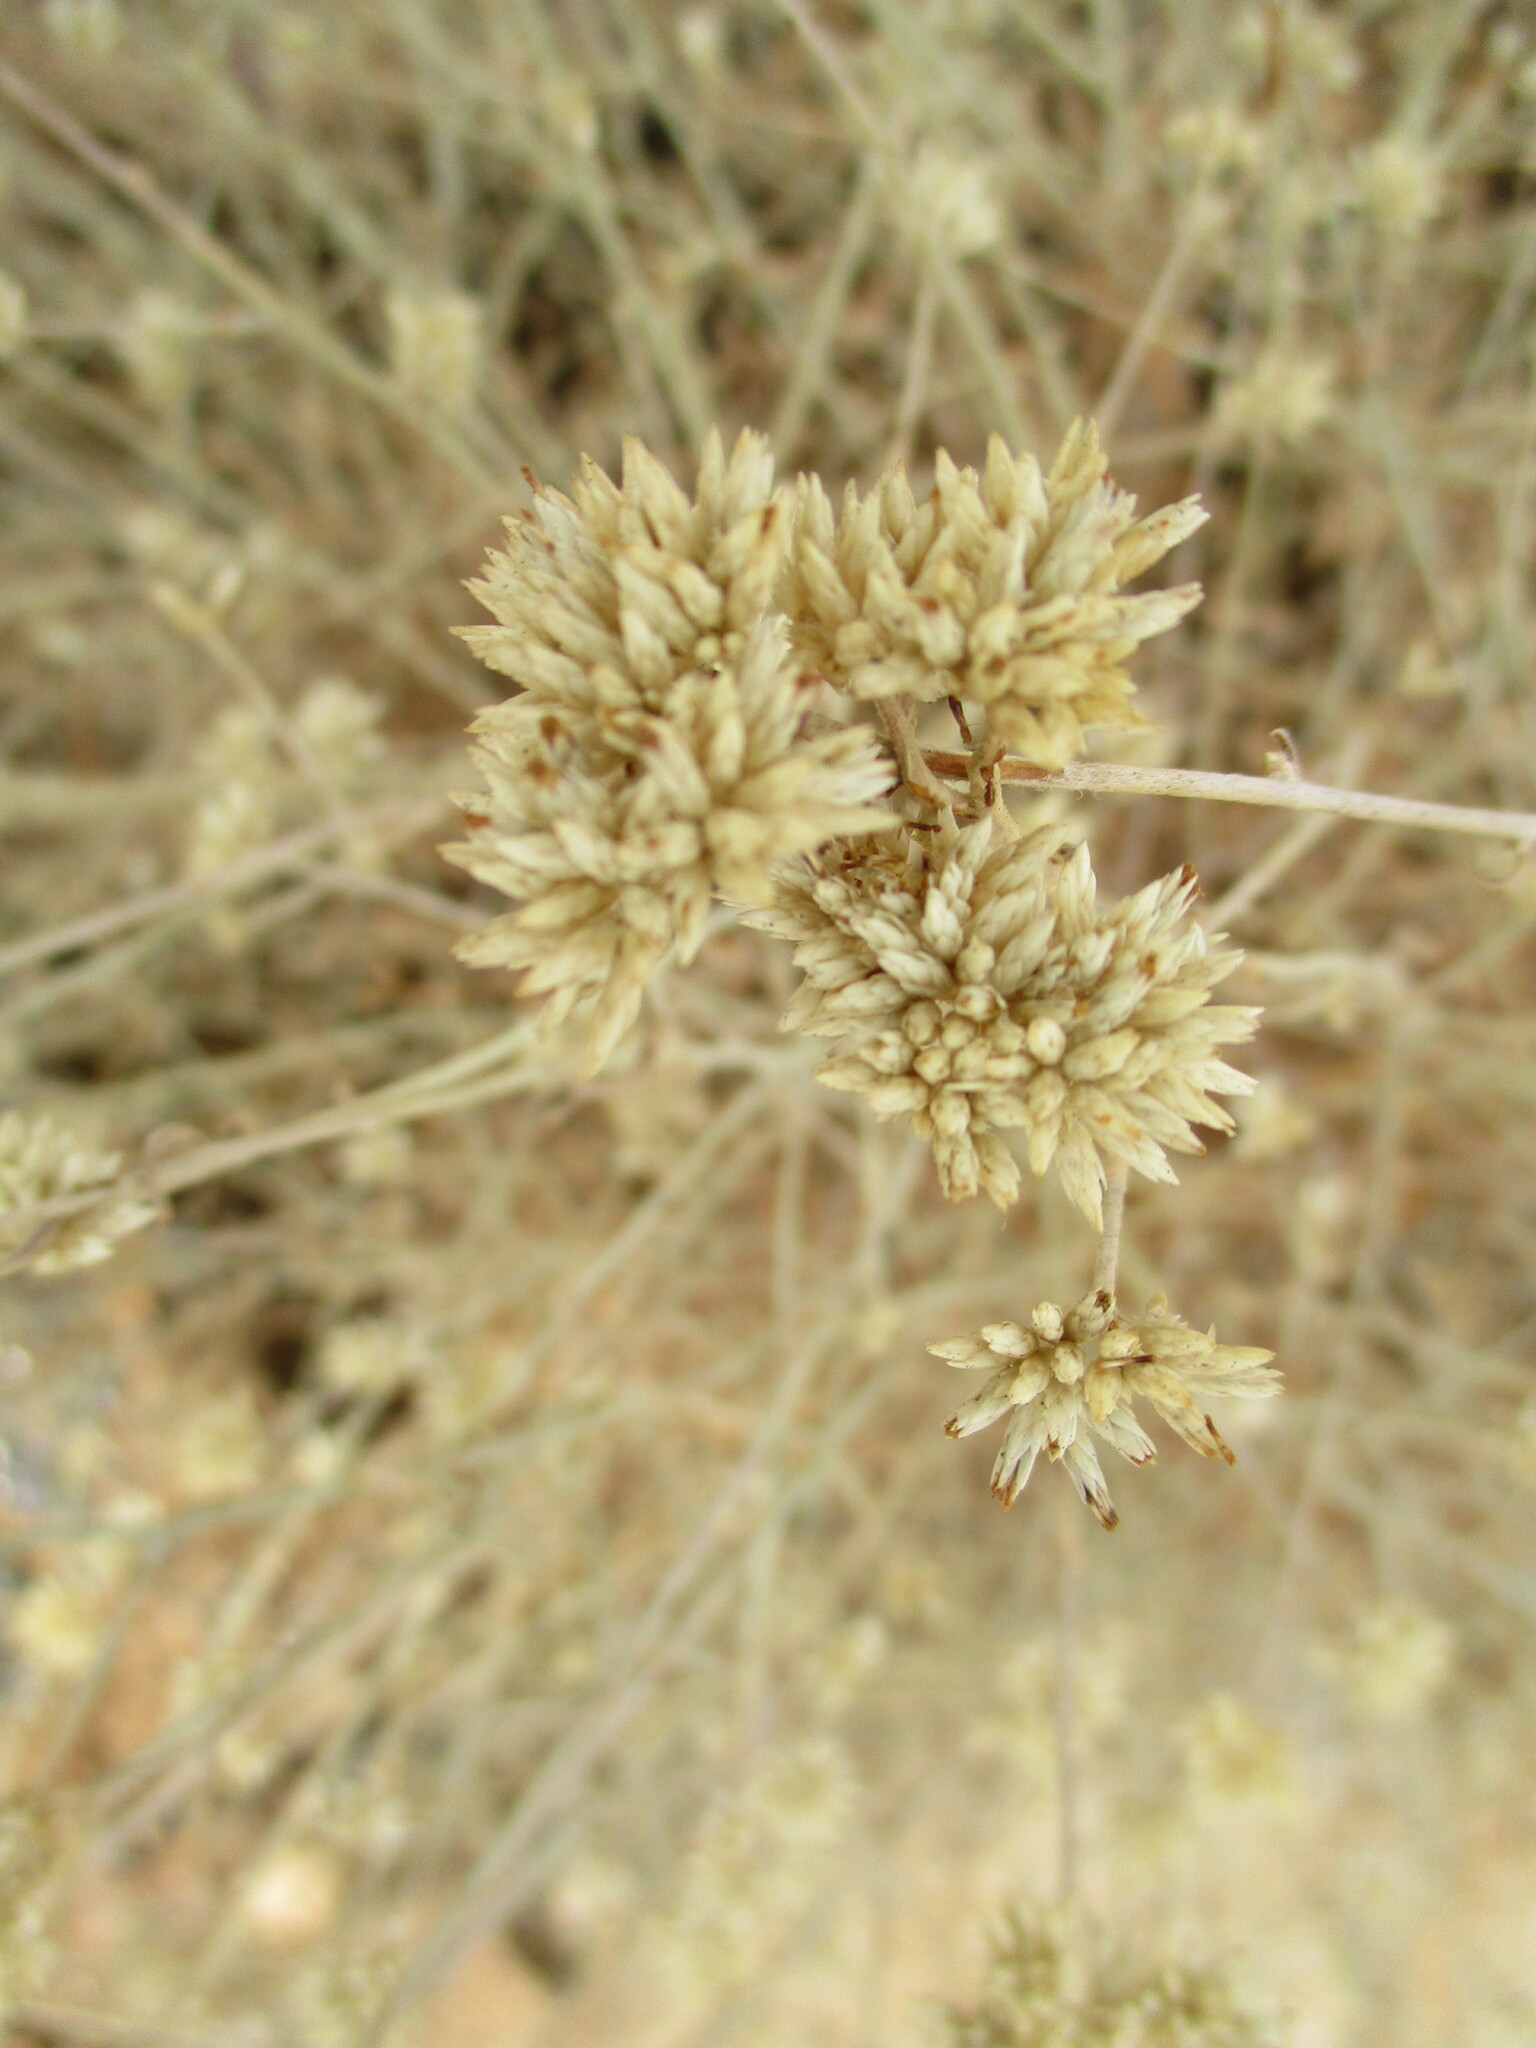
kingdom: Plantae
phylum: Tracheophyta
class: Magnoliopsida
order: Asterales
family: Asteraceae
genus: Helichrysum
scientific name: Helichrysum tomentosulum
